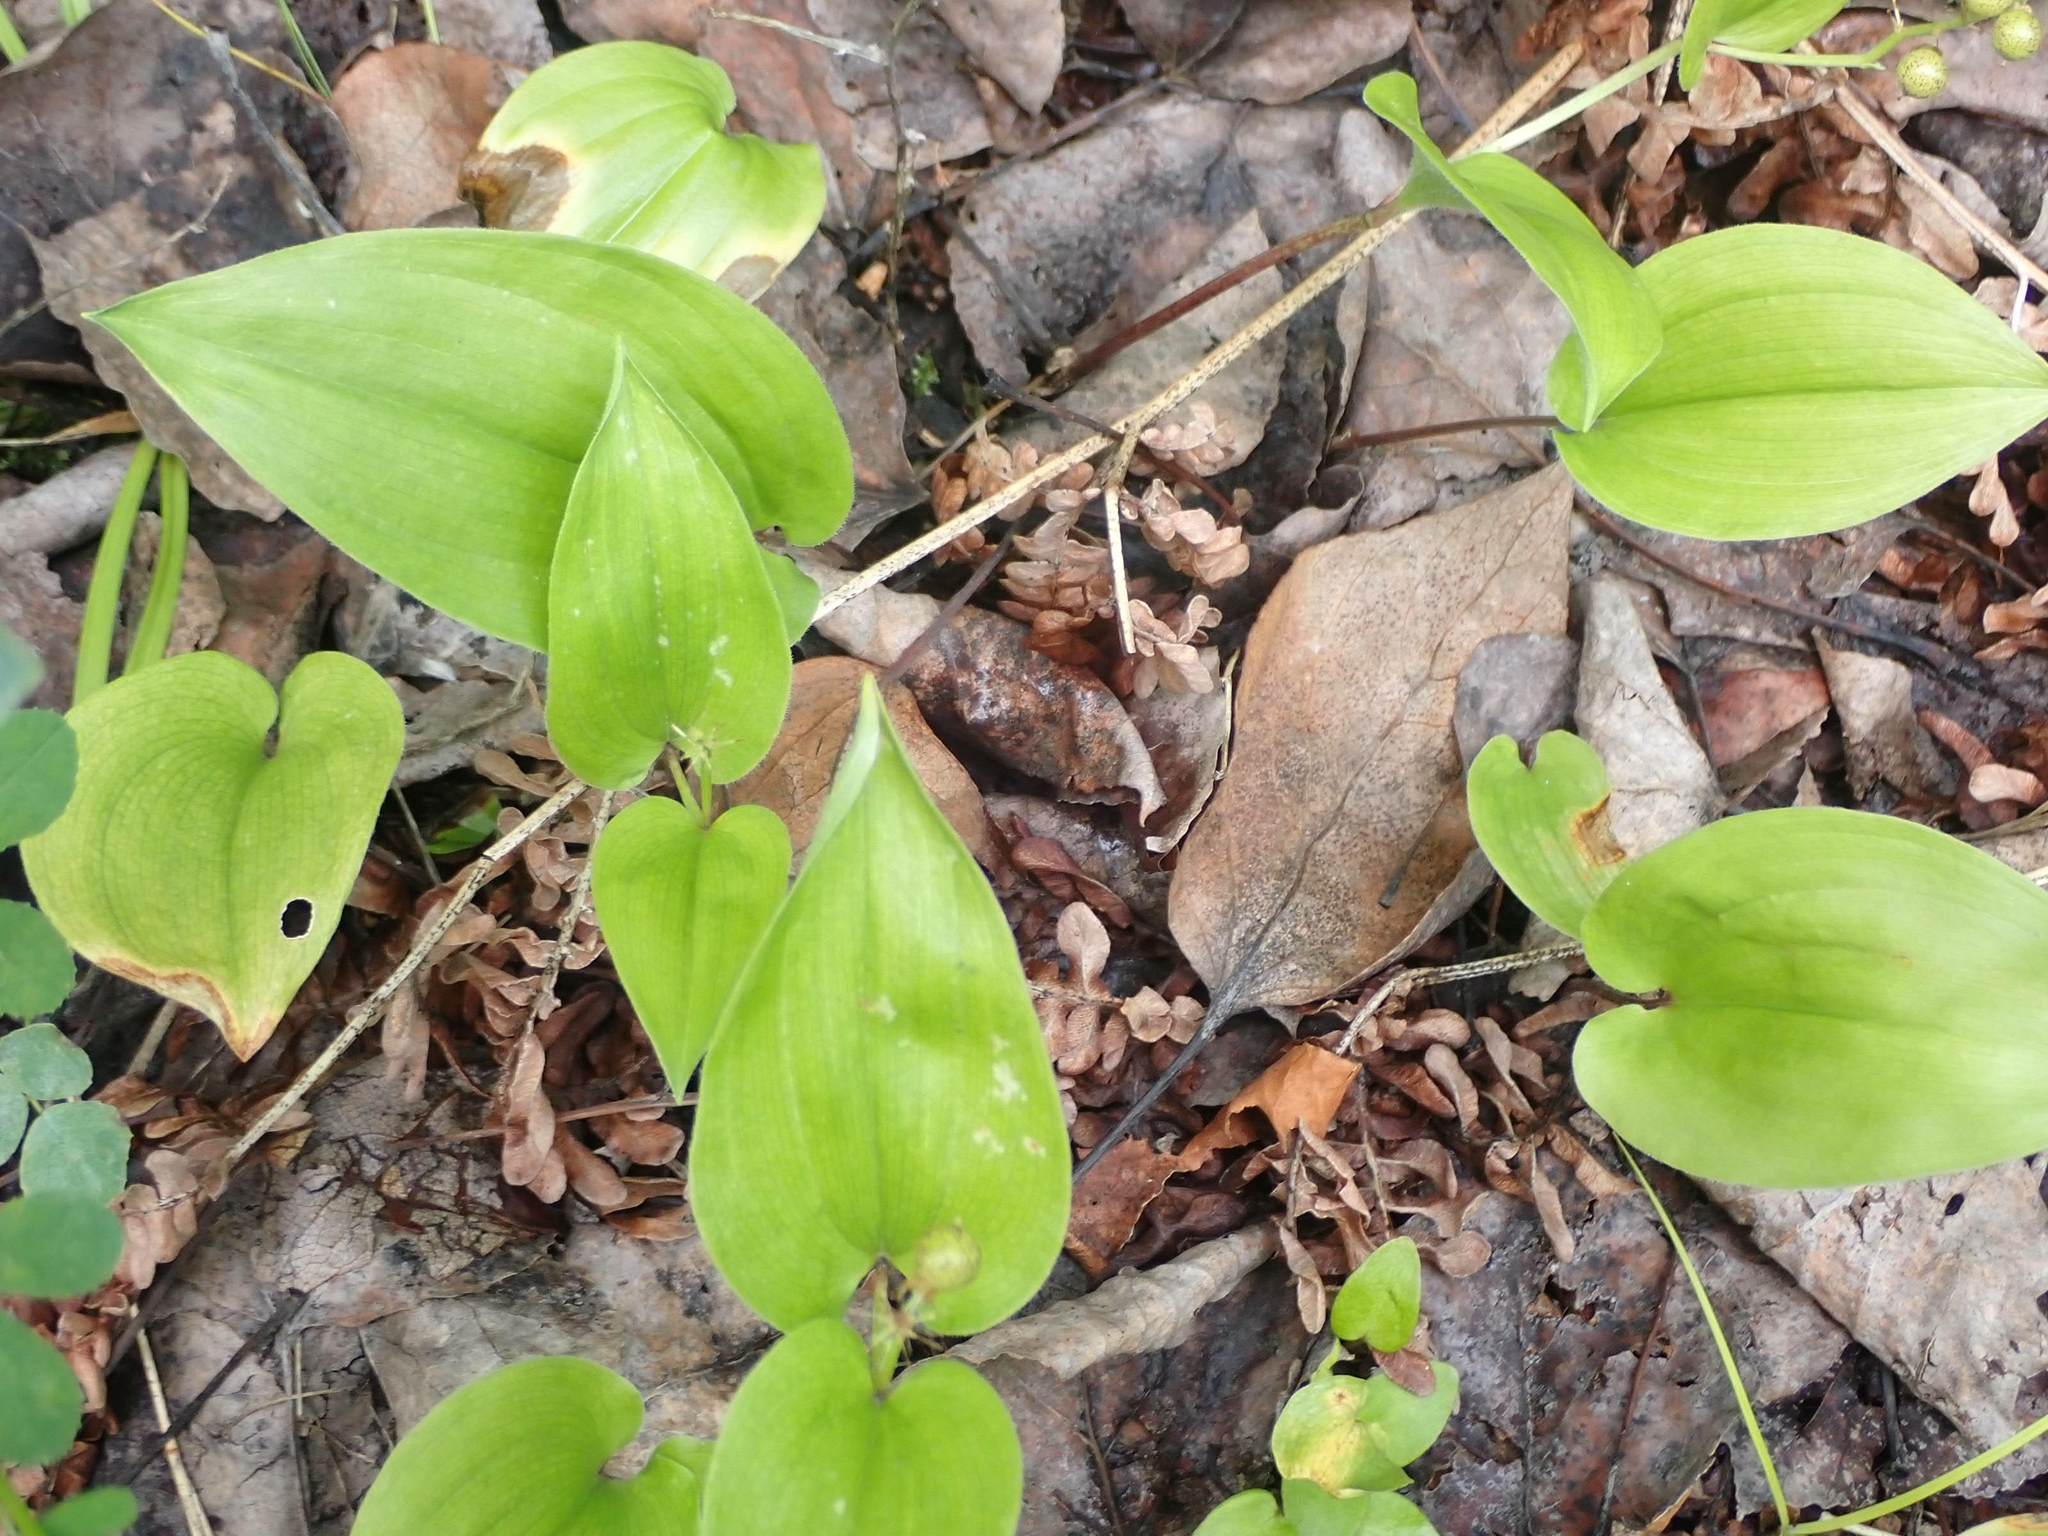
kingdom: Plantae
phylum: Tracheophyta
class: Liliopsida
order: Asparagales
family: Asparagaceae
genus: Maianthemum
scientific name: Maianthemum canadense
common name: False lily-of-the-valley
